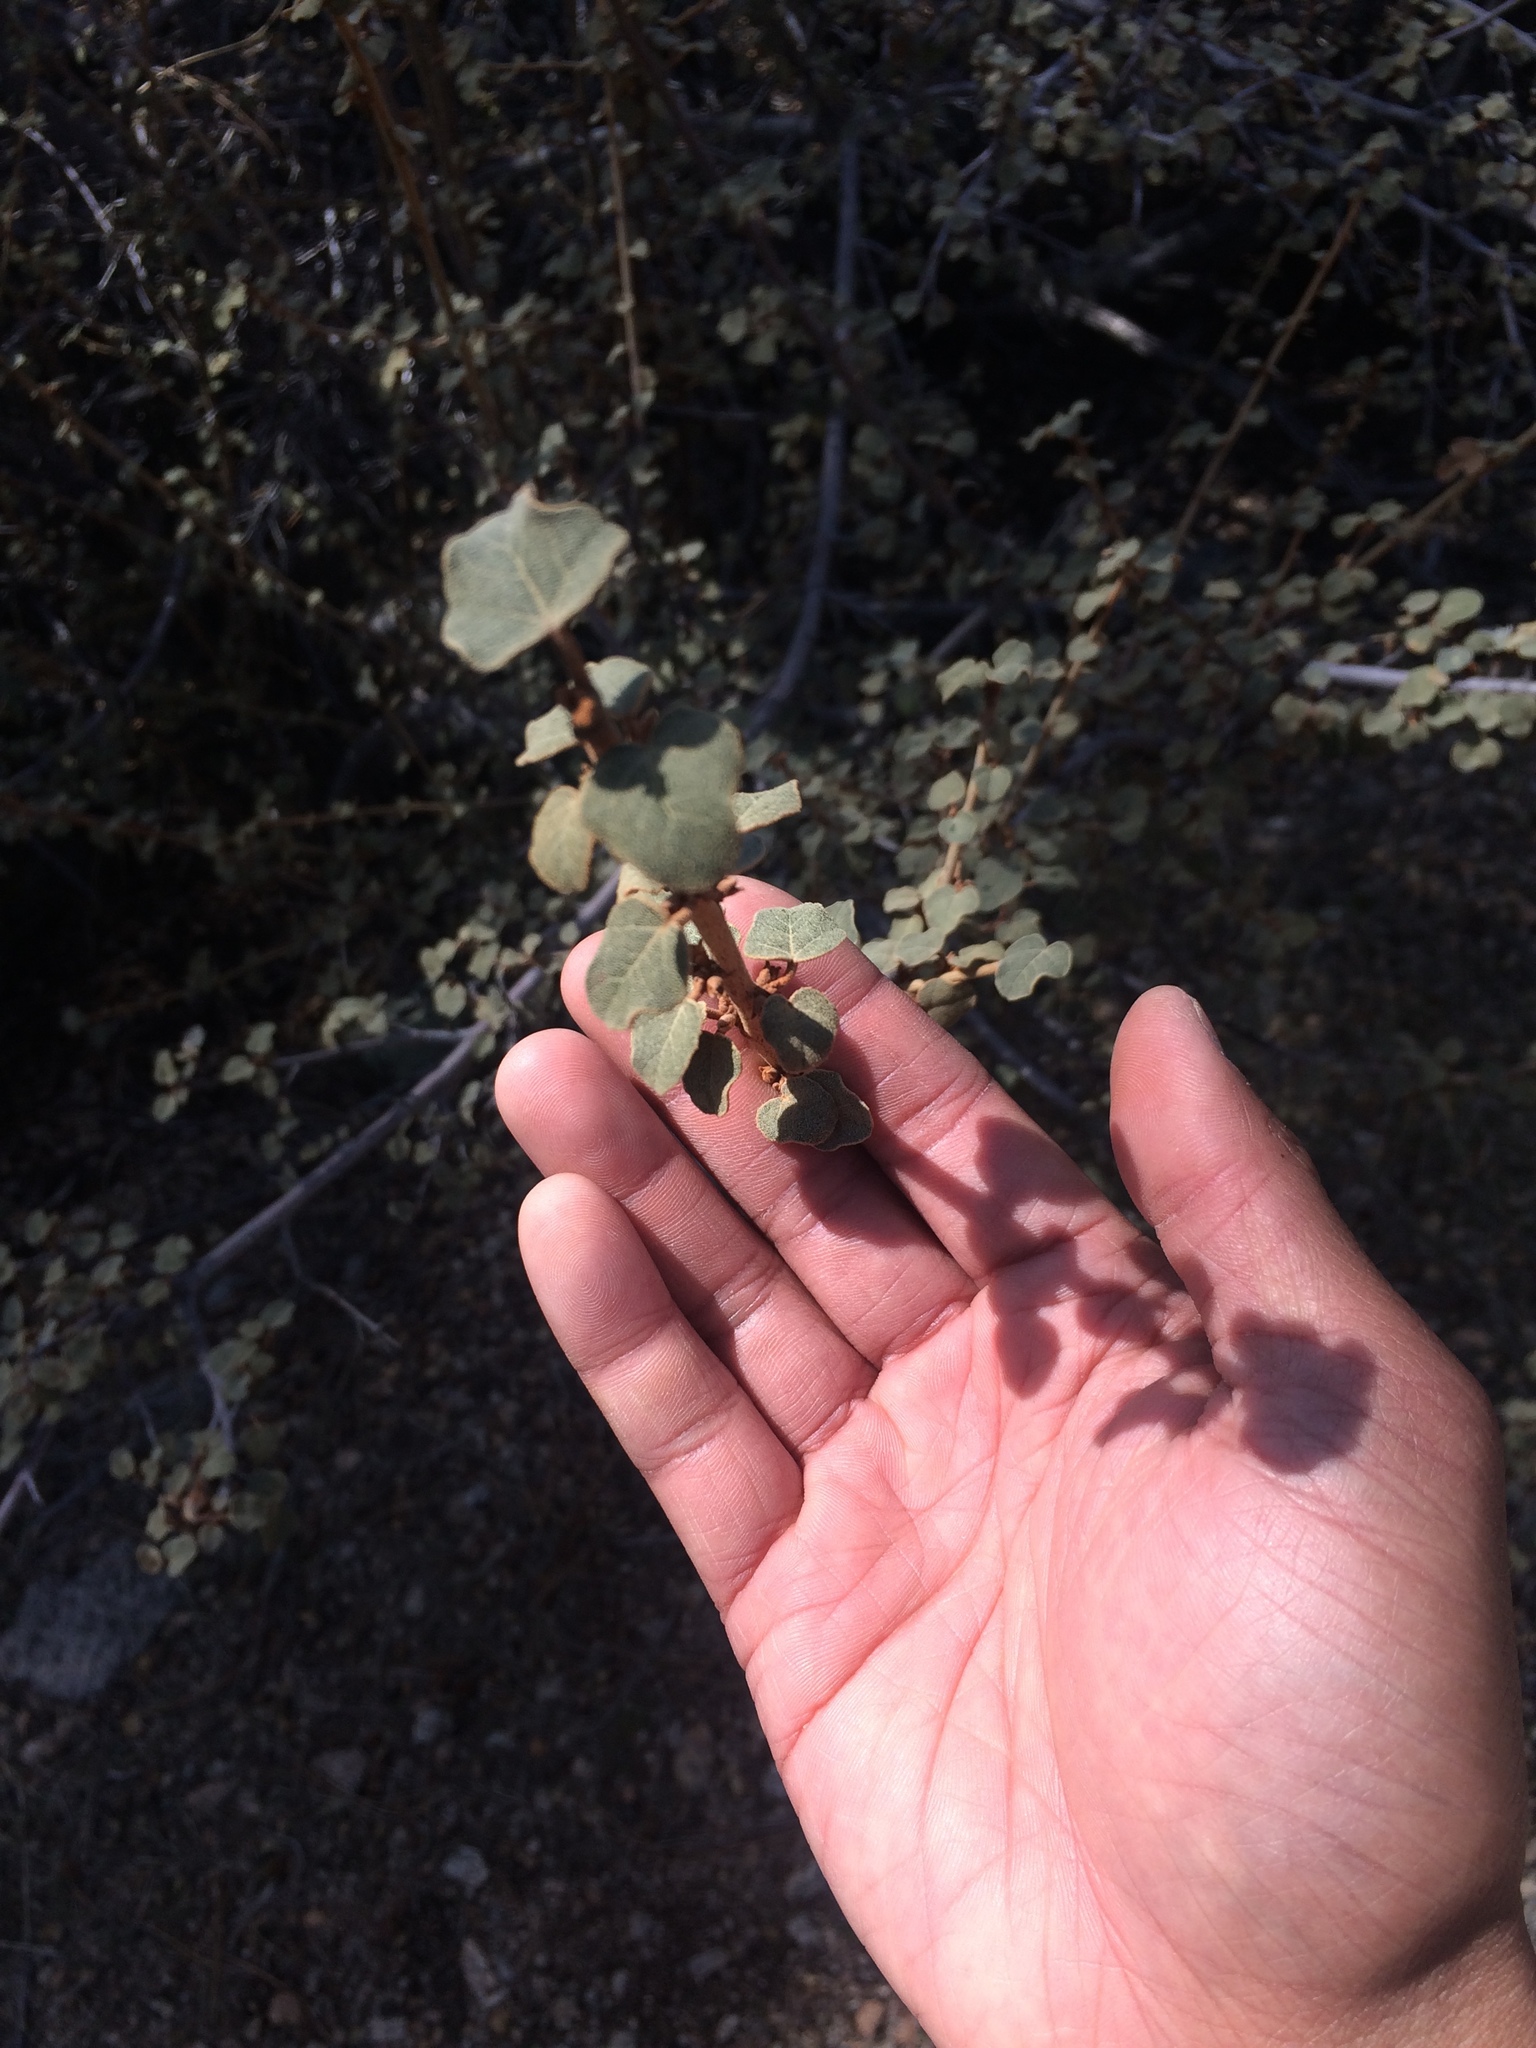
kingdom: Plantae
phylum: Tracheophyta
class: Magnoliopsida
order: Malvales
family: Malvaceae
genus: Fremontodendron
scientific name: Fremontodendron californicum
